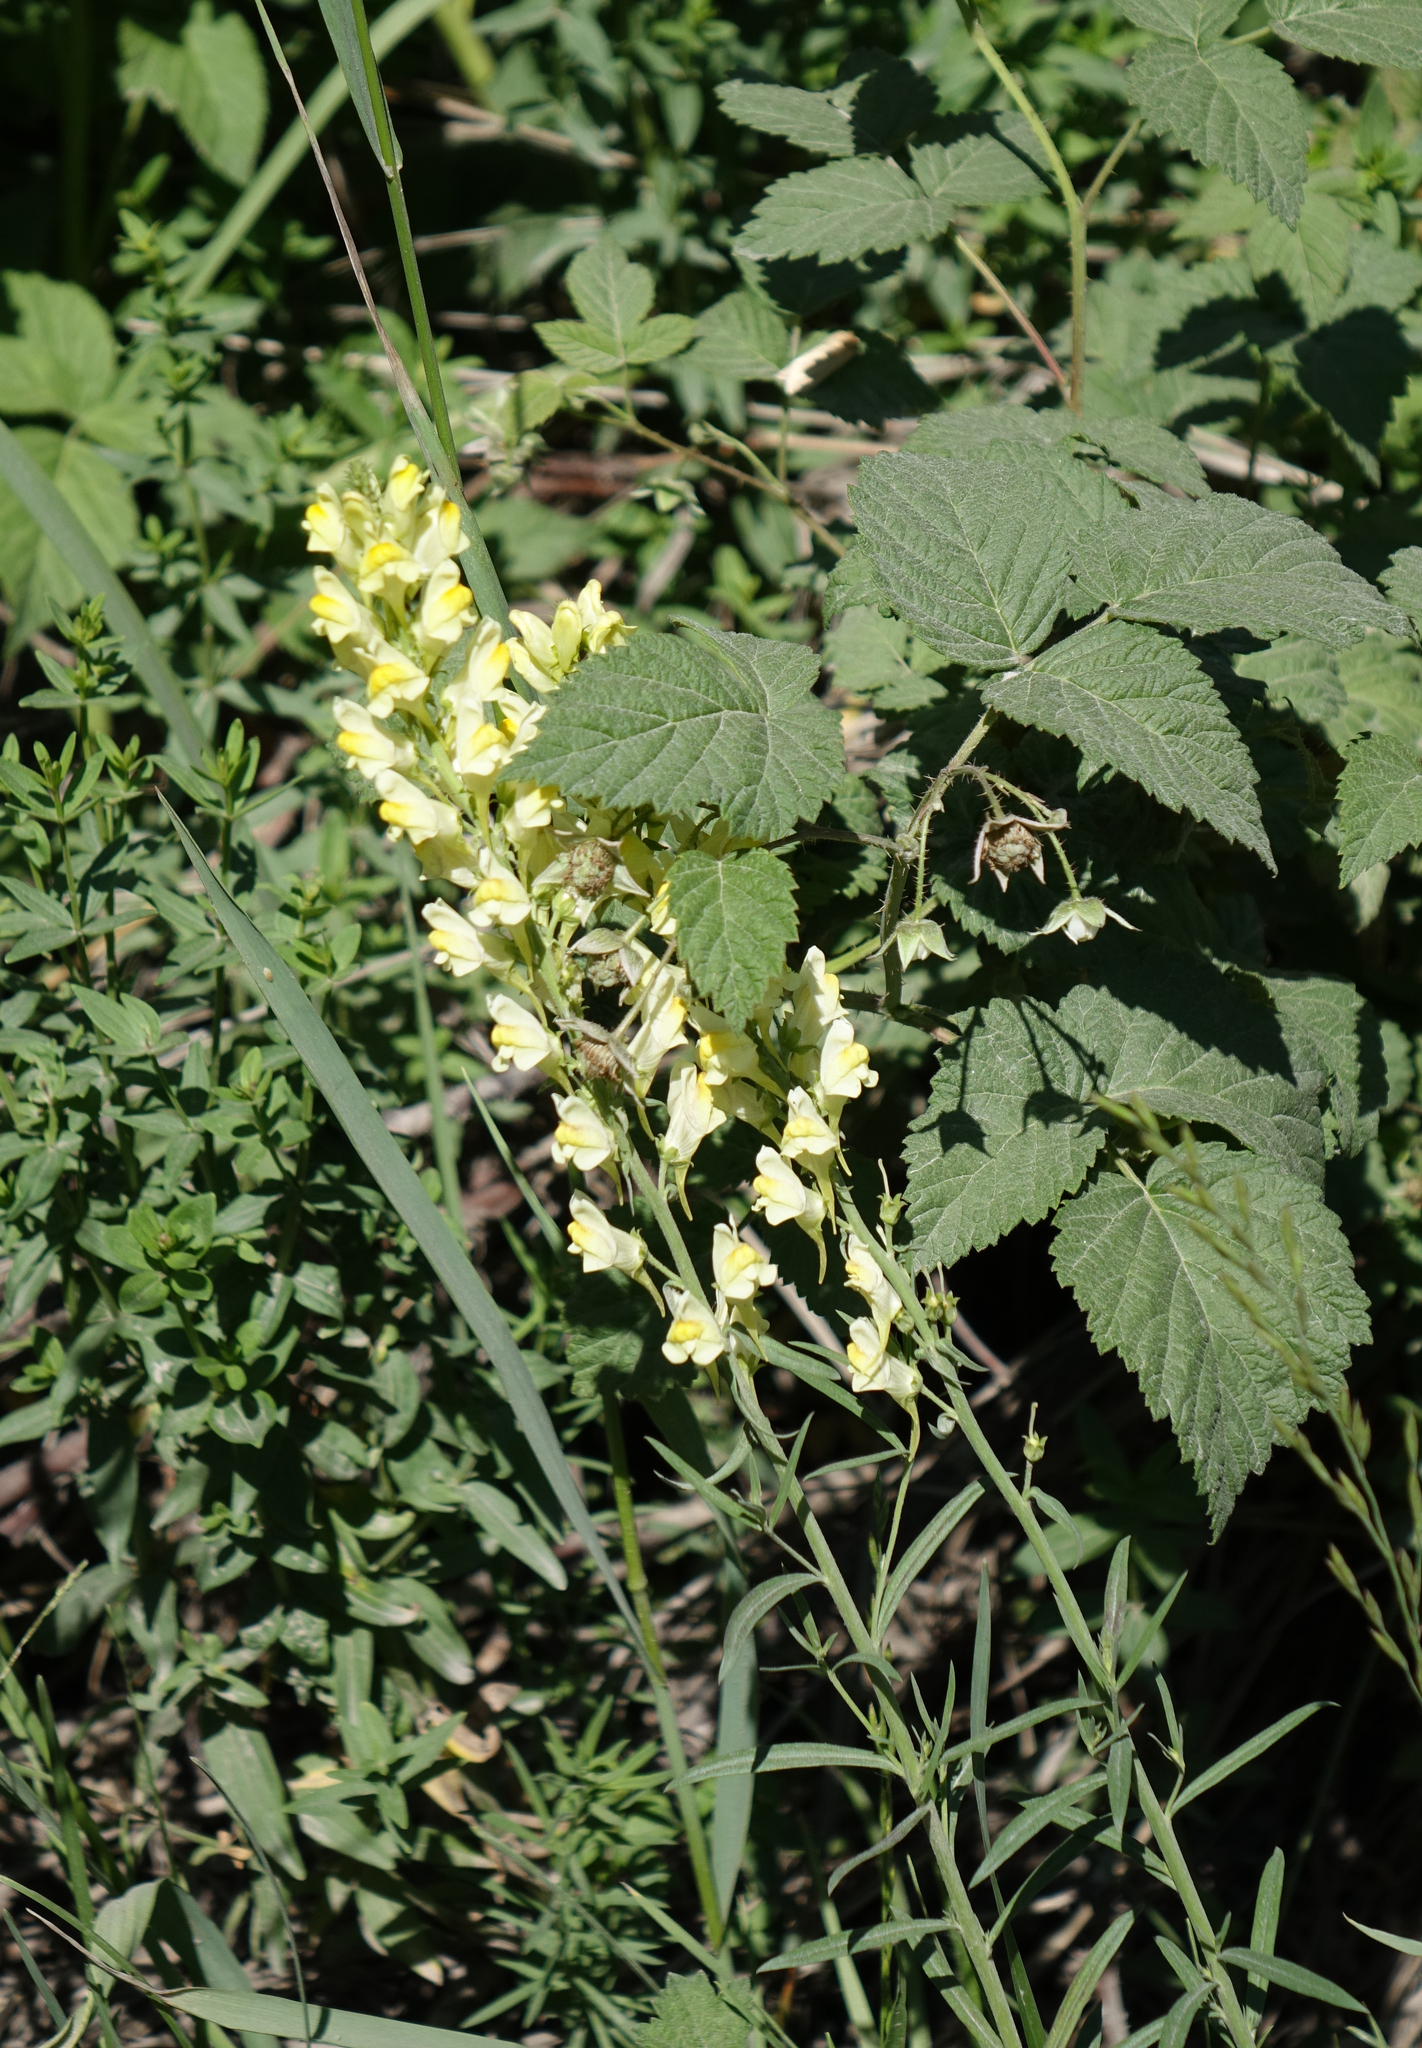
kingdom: Plantae
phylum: Tracheophyta
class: Magnoliopsida
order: Lamiales
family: Plantaginaceae
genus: Linaria
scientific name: Linaria vulgaris
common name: Butter and eggs
